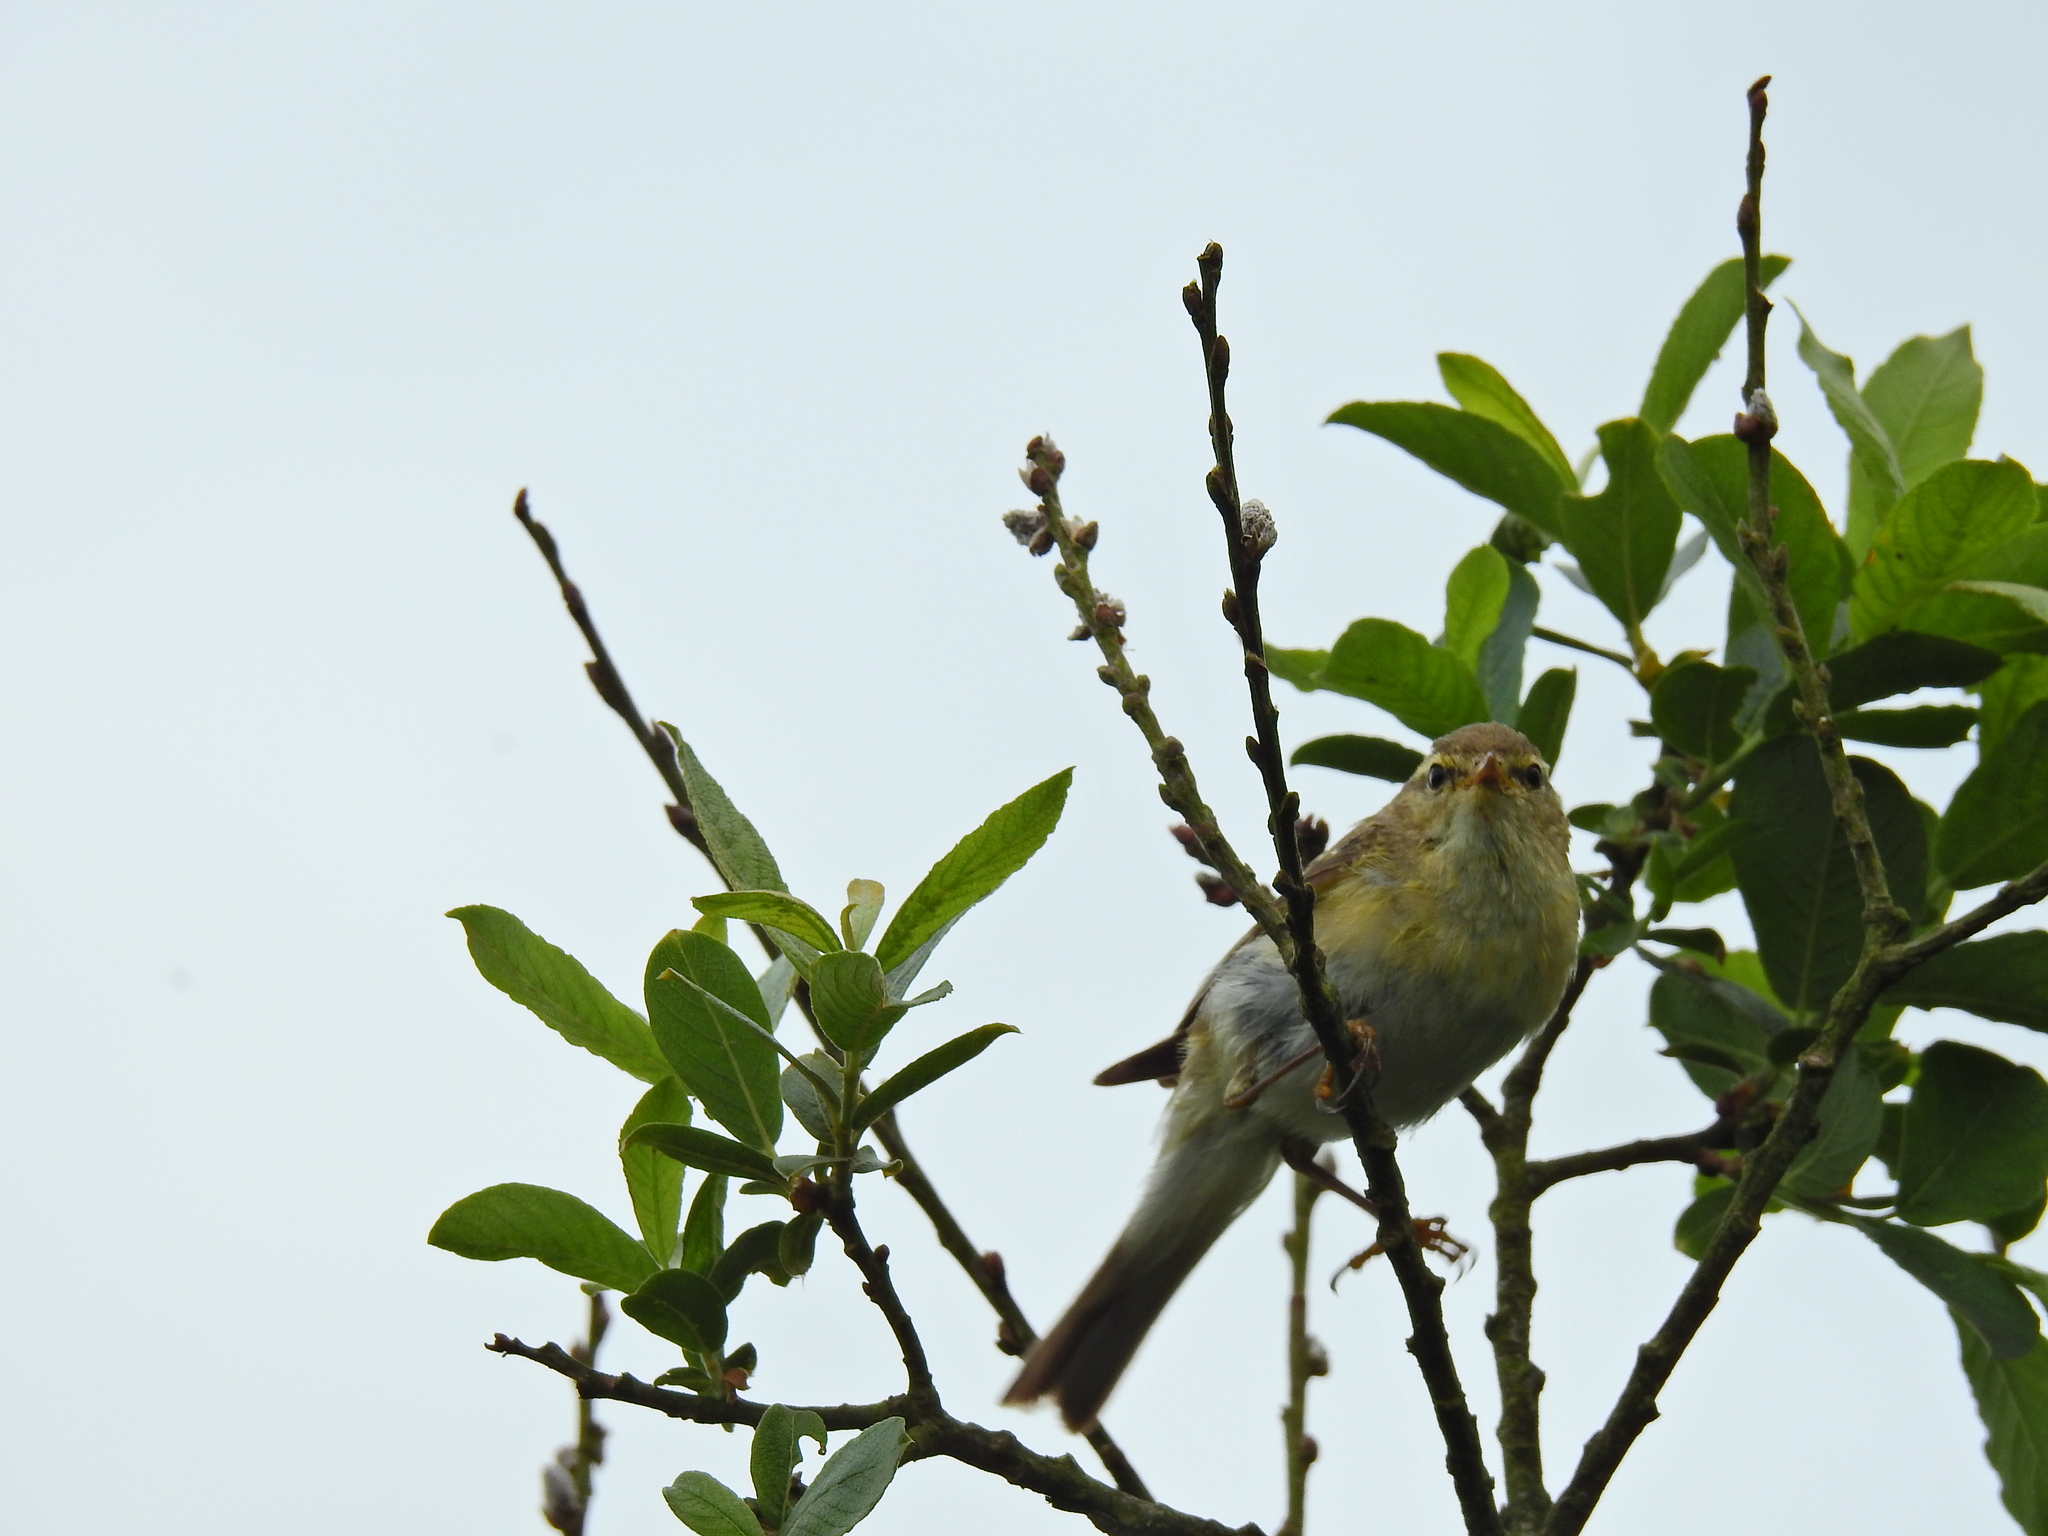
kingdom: Animalia
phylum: Chordata
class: Aves
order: Passeriformes
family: Phylloscopidae
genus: Phylloscopus
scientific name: Phylloscopus trochilus
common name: Willow warbler
